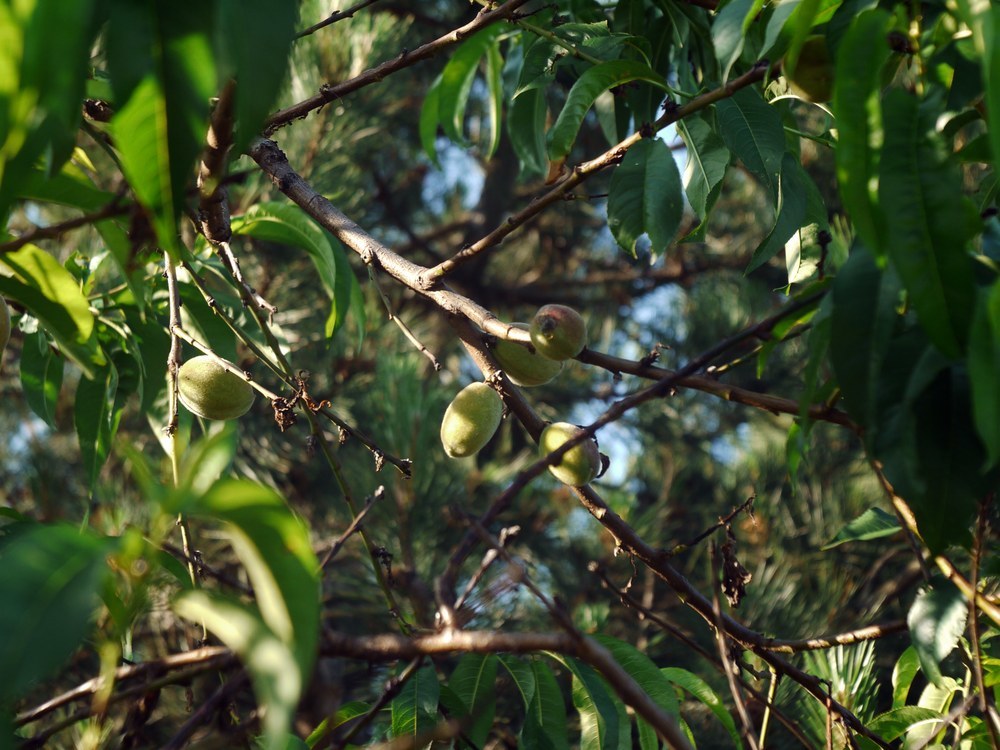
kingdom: Plantae
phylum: Tracheophyta
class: Magnoliopsida
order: Rosales
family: Rosaceae
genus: Prunus
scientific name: Prunus persica
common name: Peach
